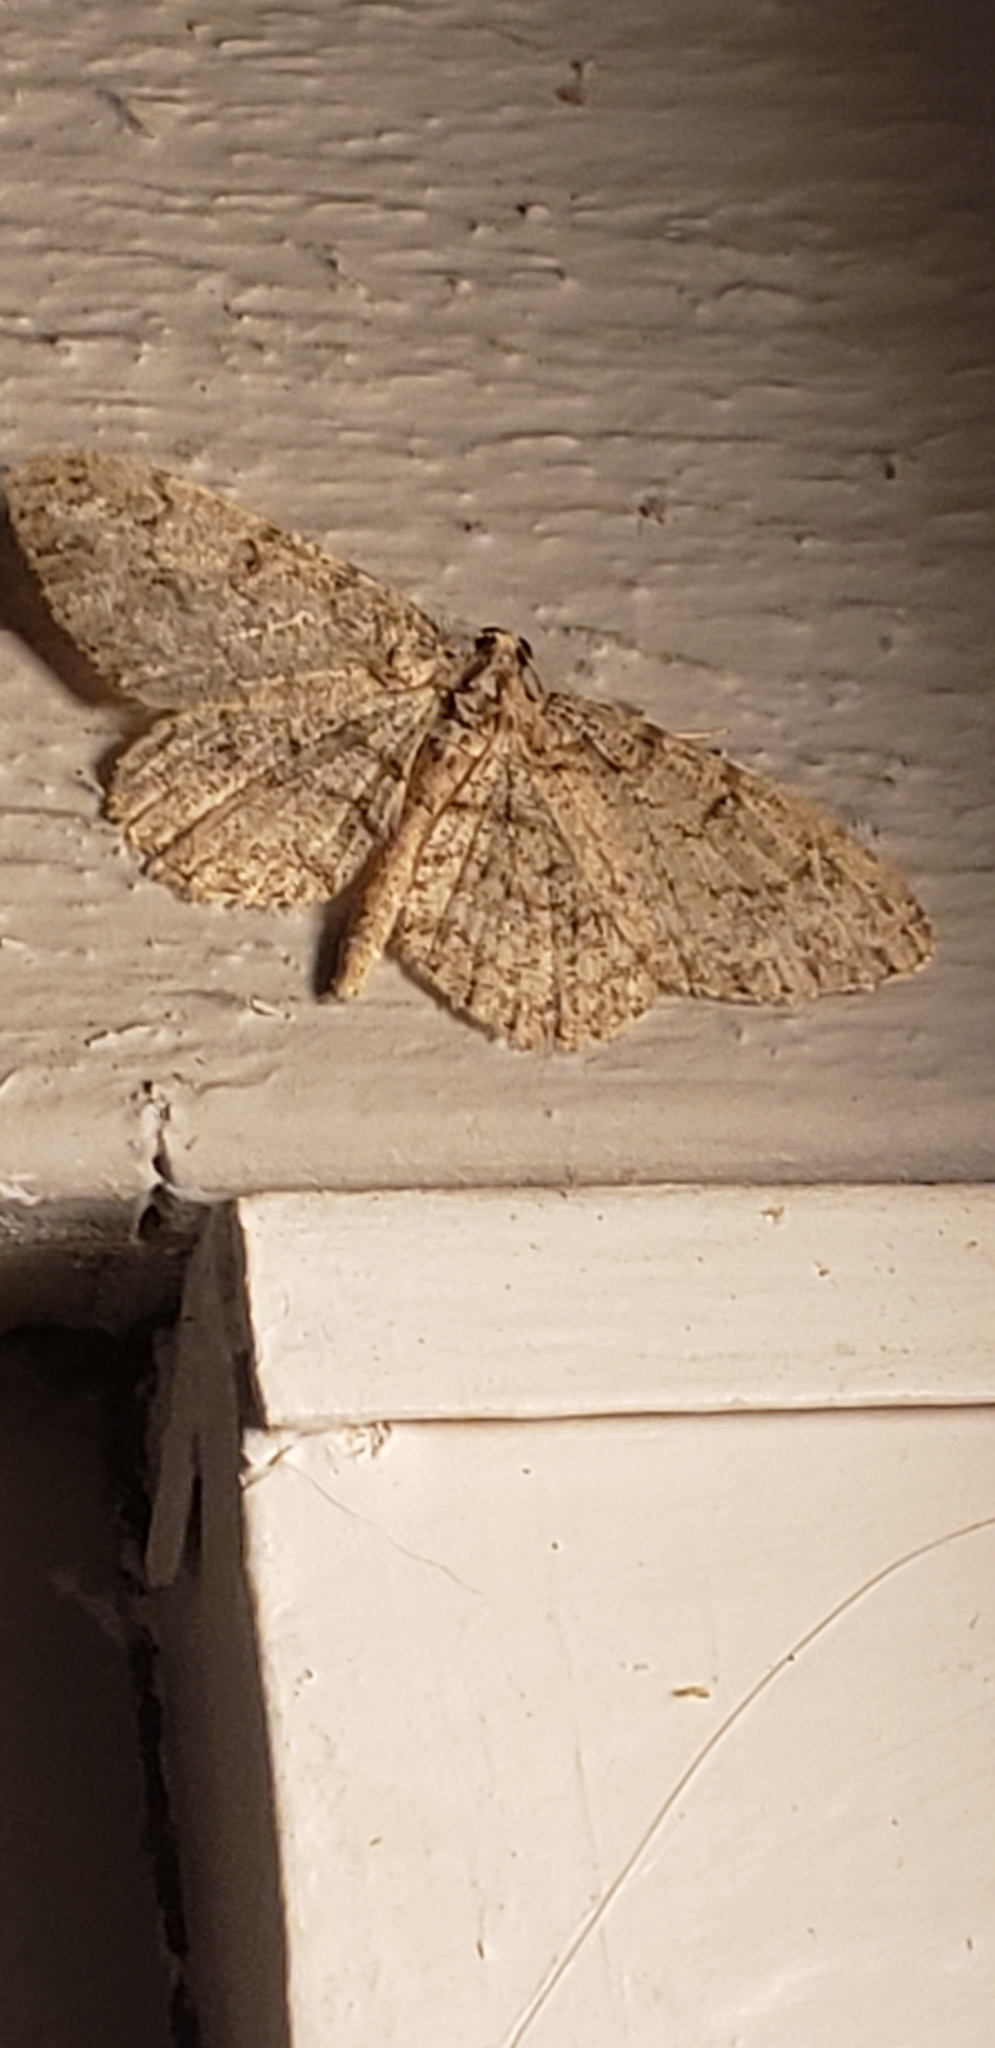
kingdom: Animalia
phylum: Arthropoda
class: Insecta
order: Lepidoptera
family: Geometridae
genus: Protoboarmia
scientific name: Protoboarmia porcelaria
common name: Porcelain gray
